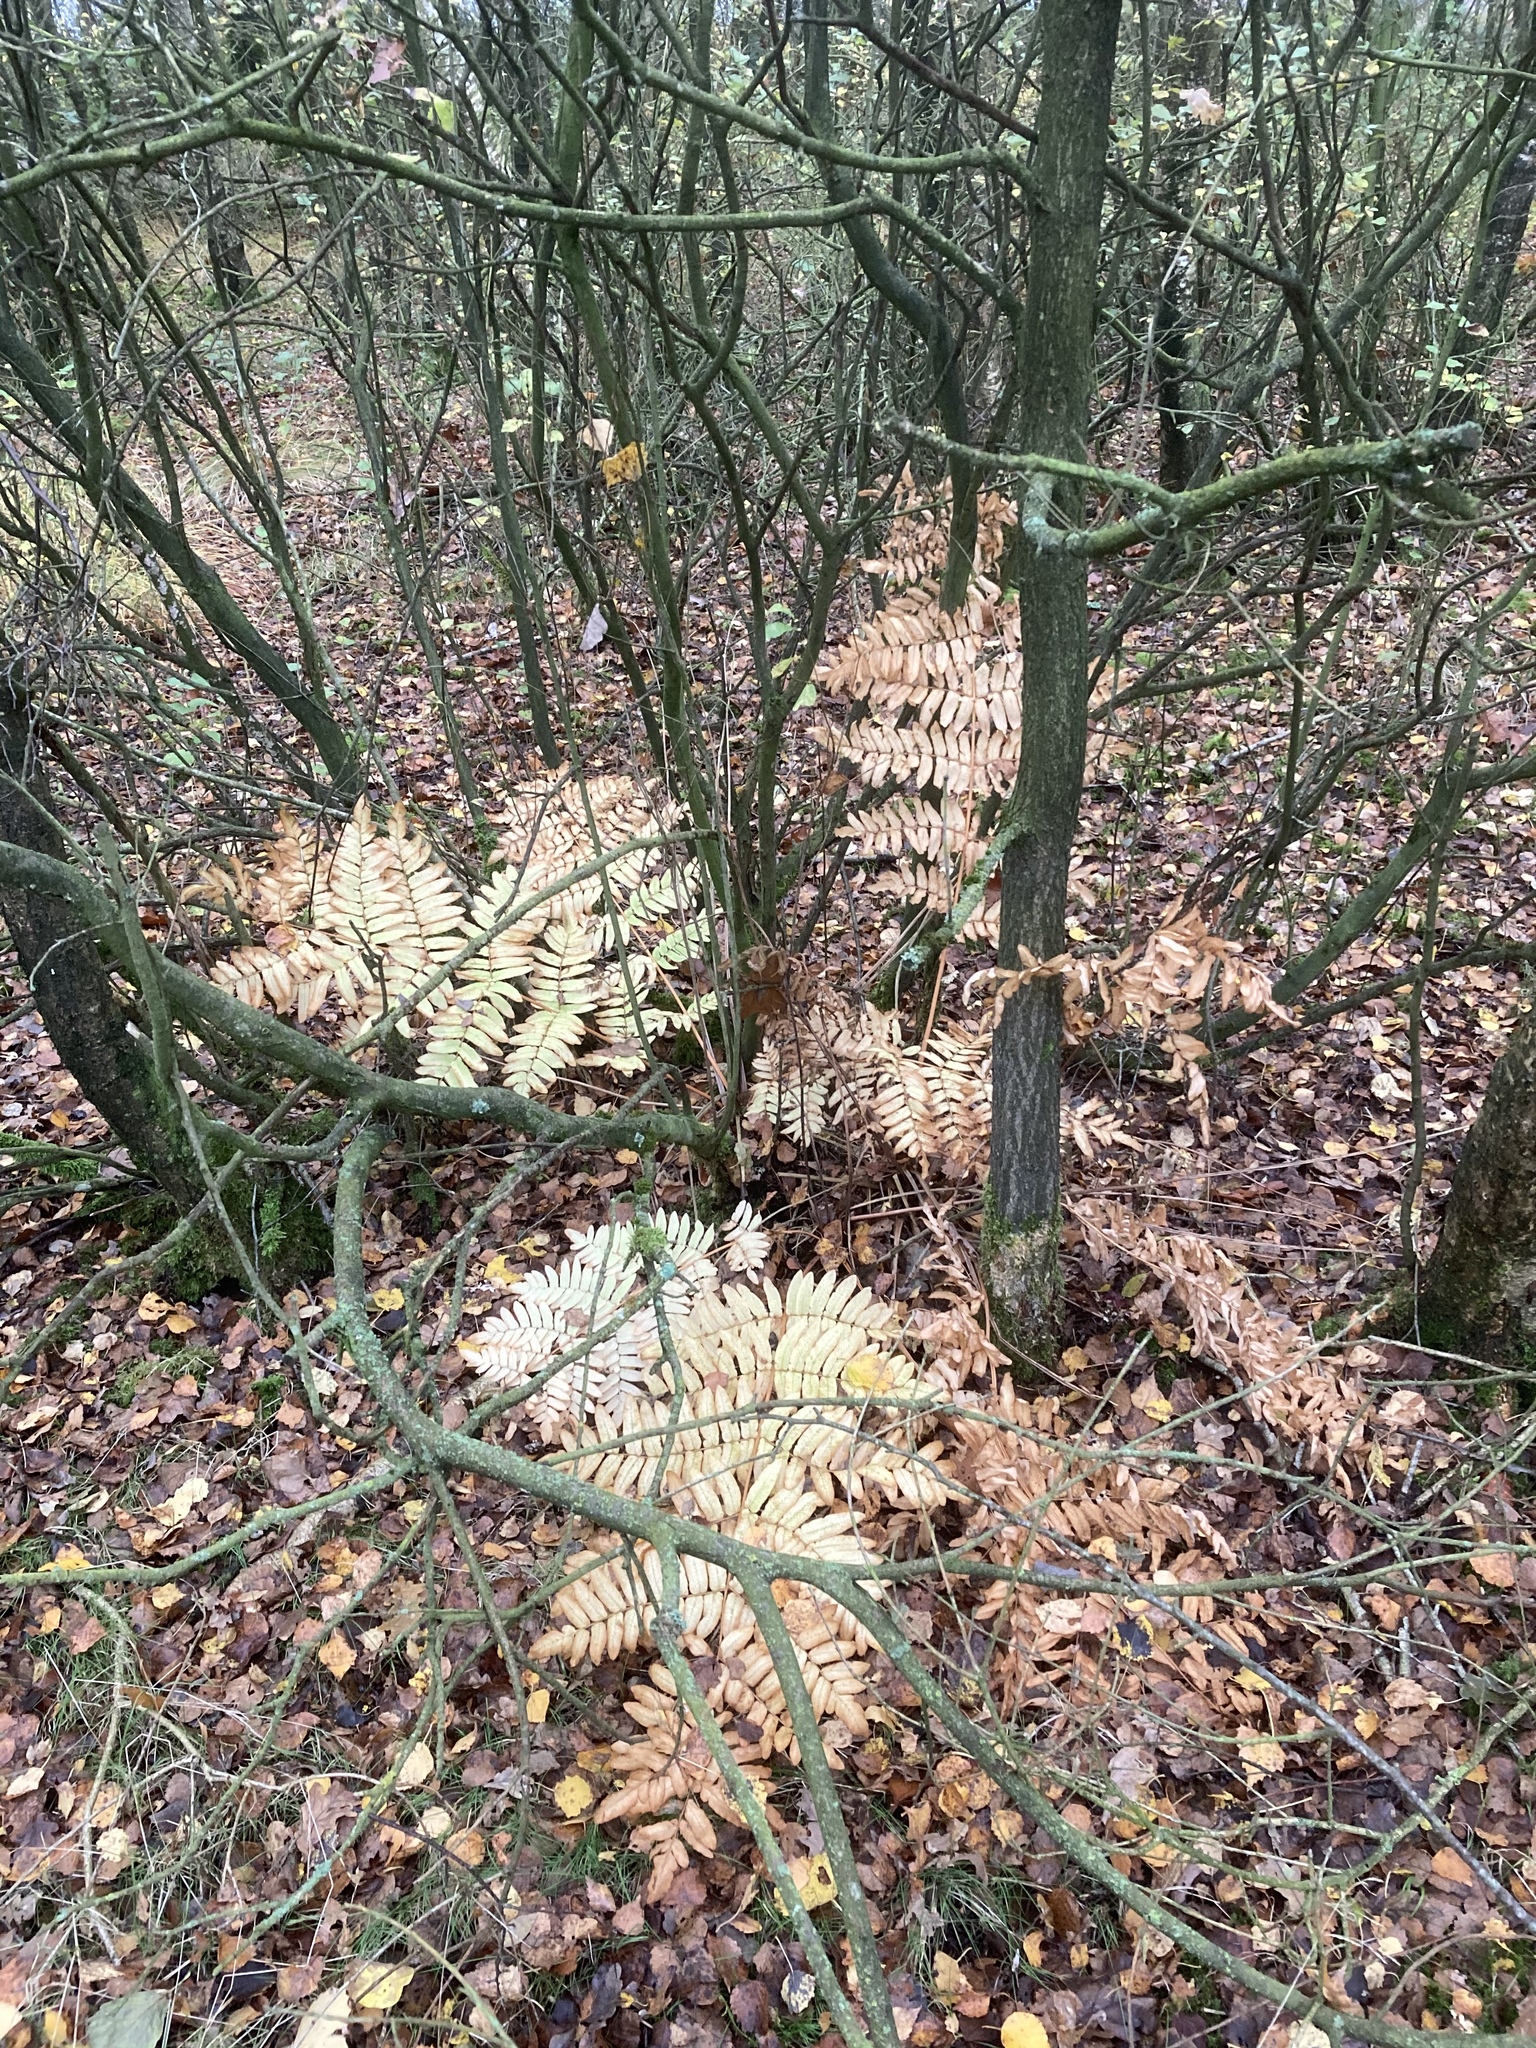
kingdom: Plantae
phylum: Tracheophyta
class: Polypodiopsida
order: Osmundales
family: Osmundaceae
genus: Osmunda
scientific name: Osmunda regalis
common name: Royal fern
